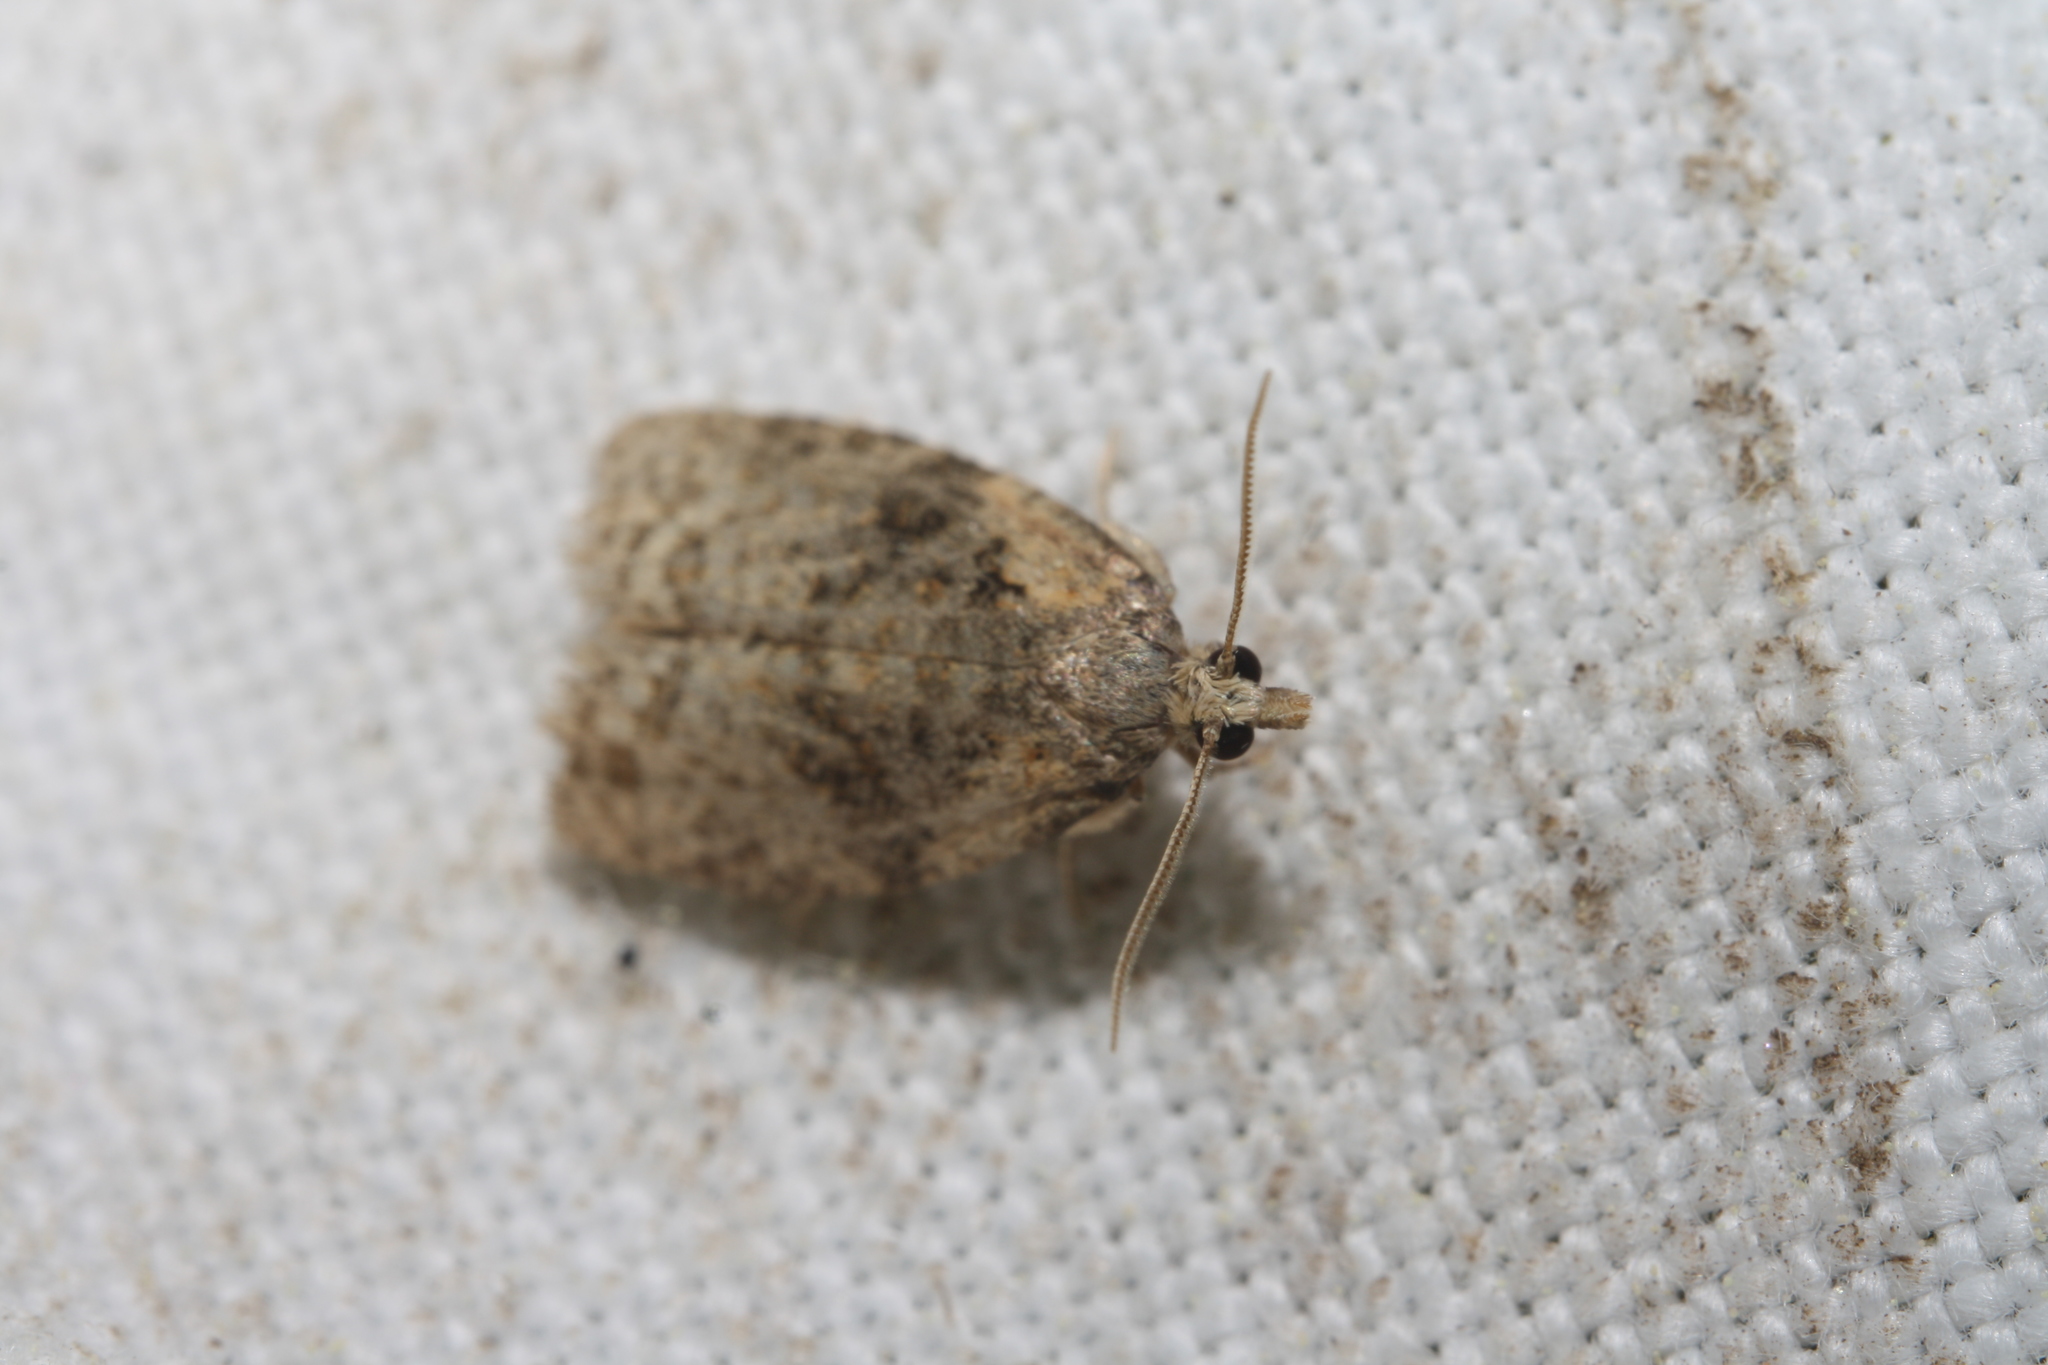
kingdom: Animalia
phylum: Arthropoda
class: Insecta
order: Lepidoptera
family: Tortricidae
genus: Capua
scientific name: Capua vulgana
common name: Common twist
